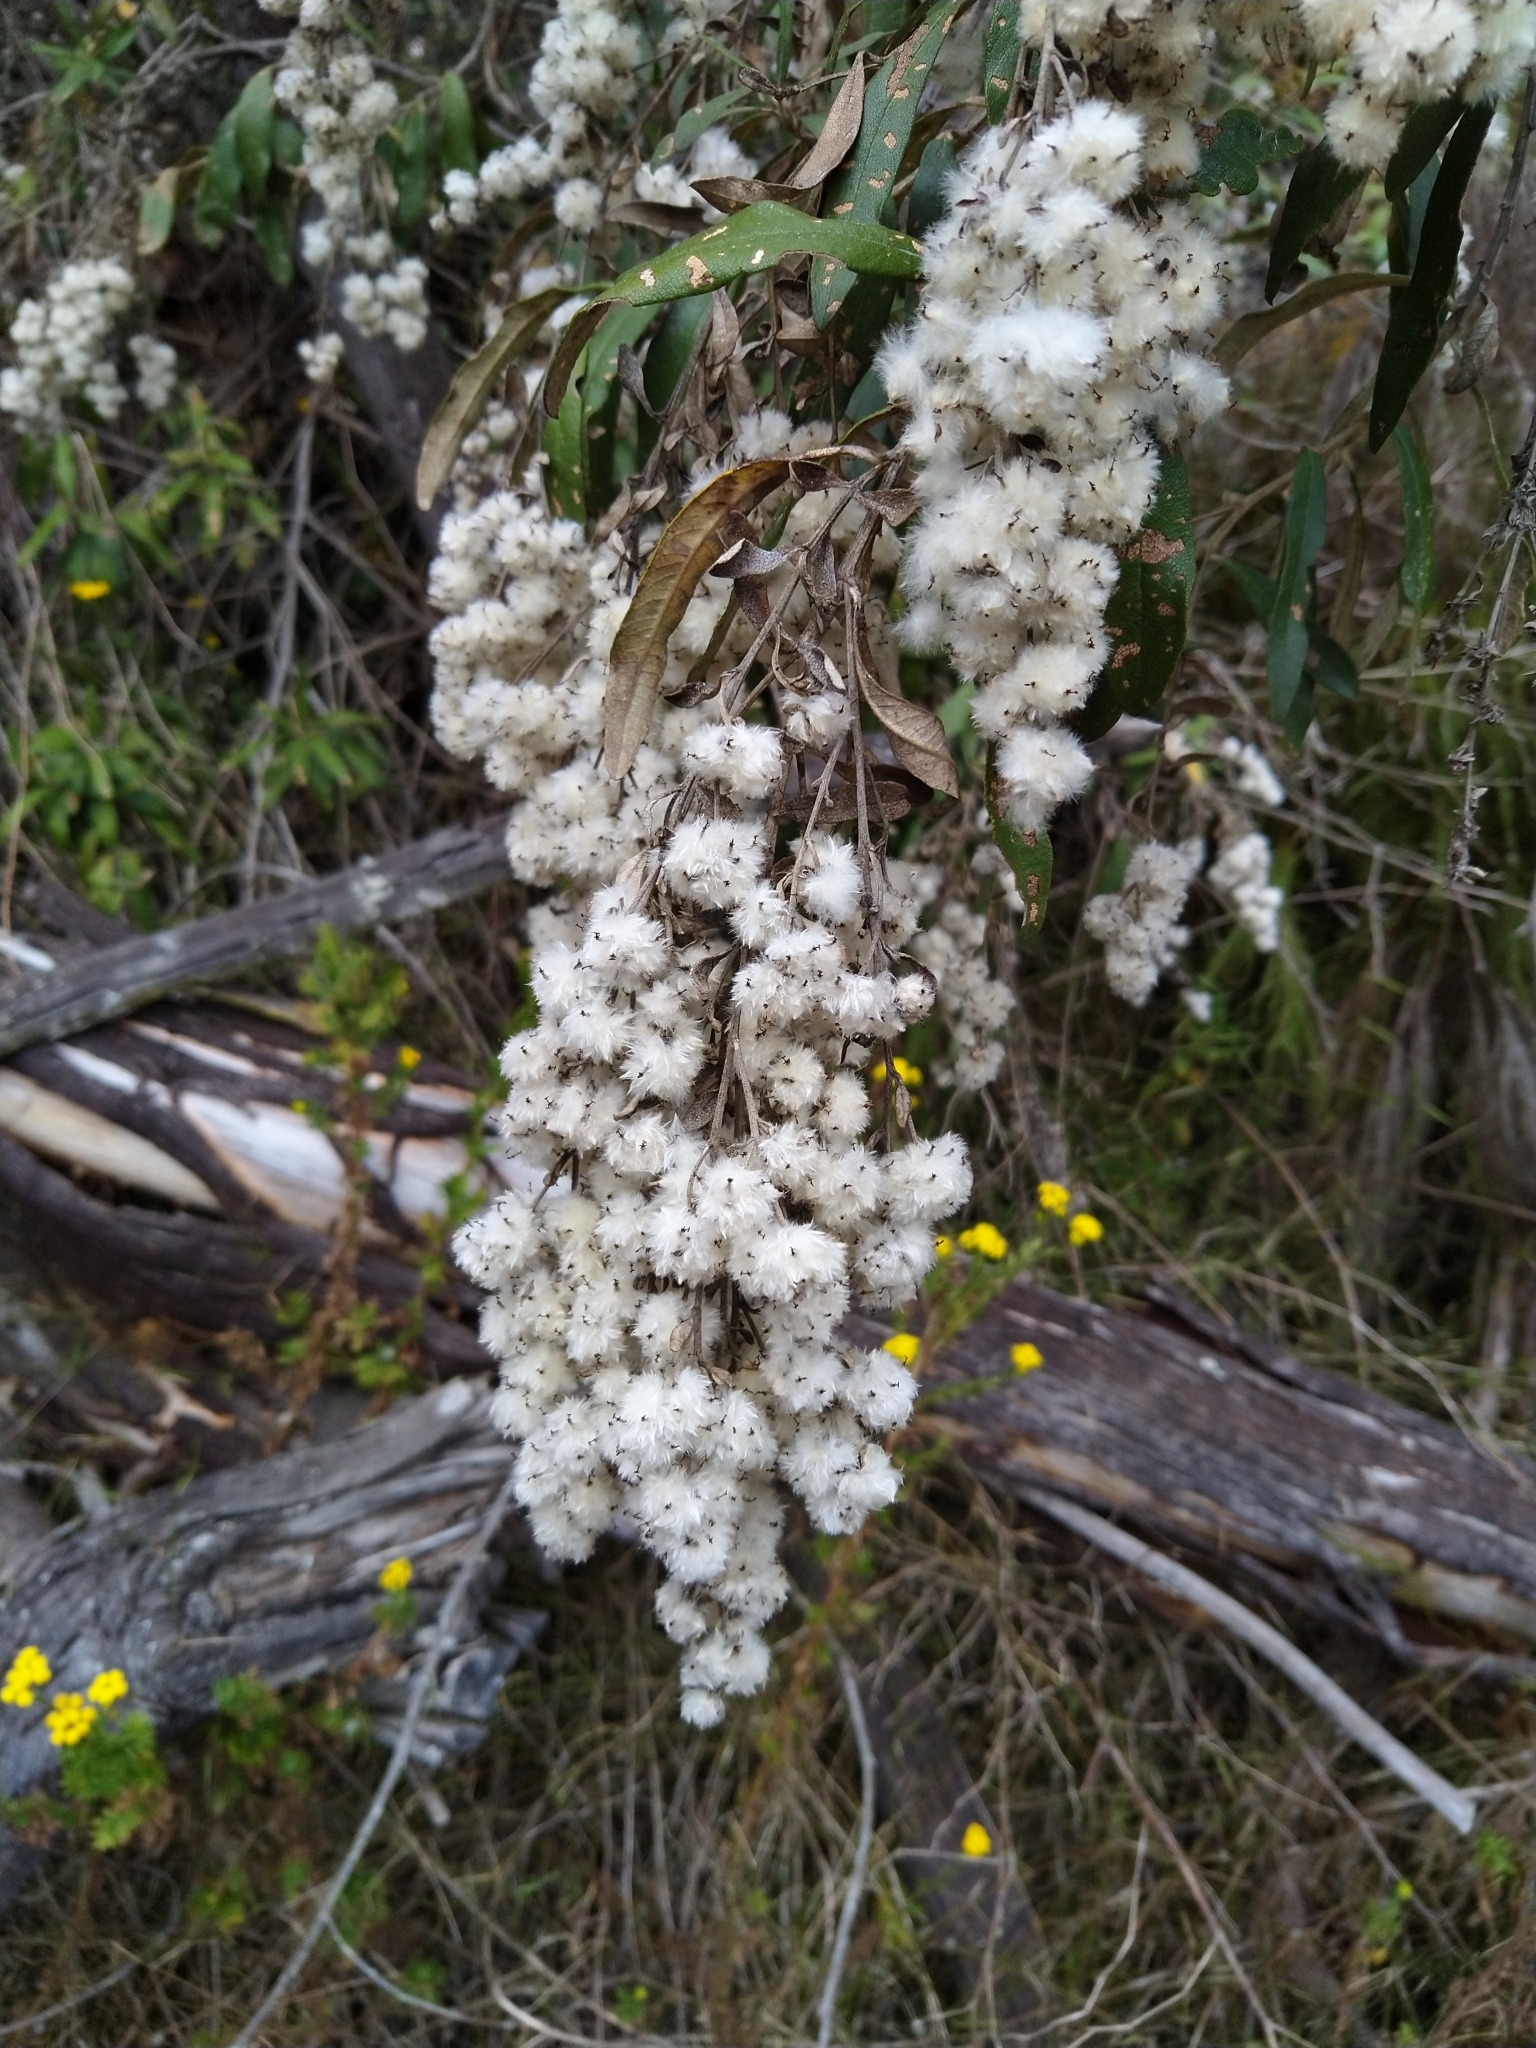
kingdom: Plantae
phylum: Tracheophyta
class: Magnoliopsida
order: Asterales
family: Asteraceae
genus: Tarchonanthus
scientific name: Tarchonanthus littoralis
